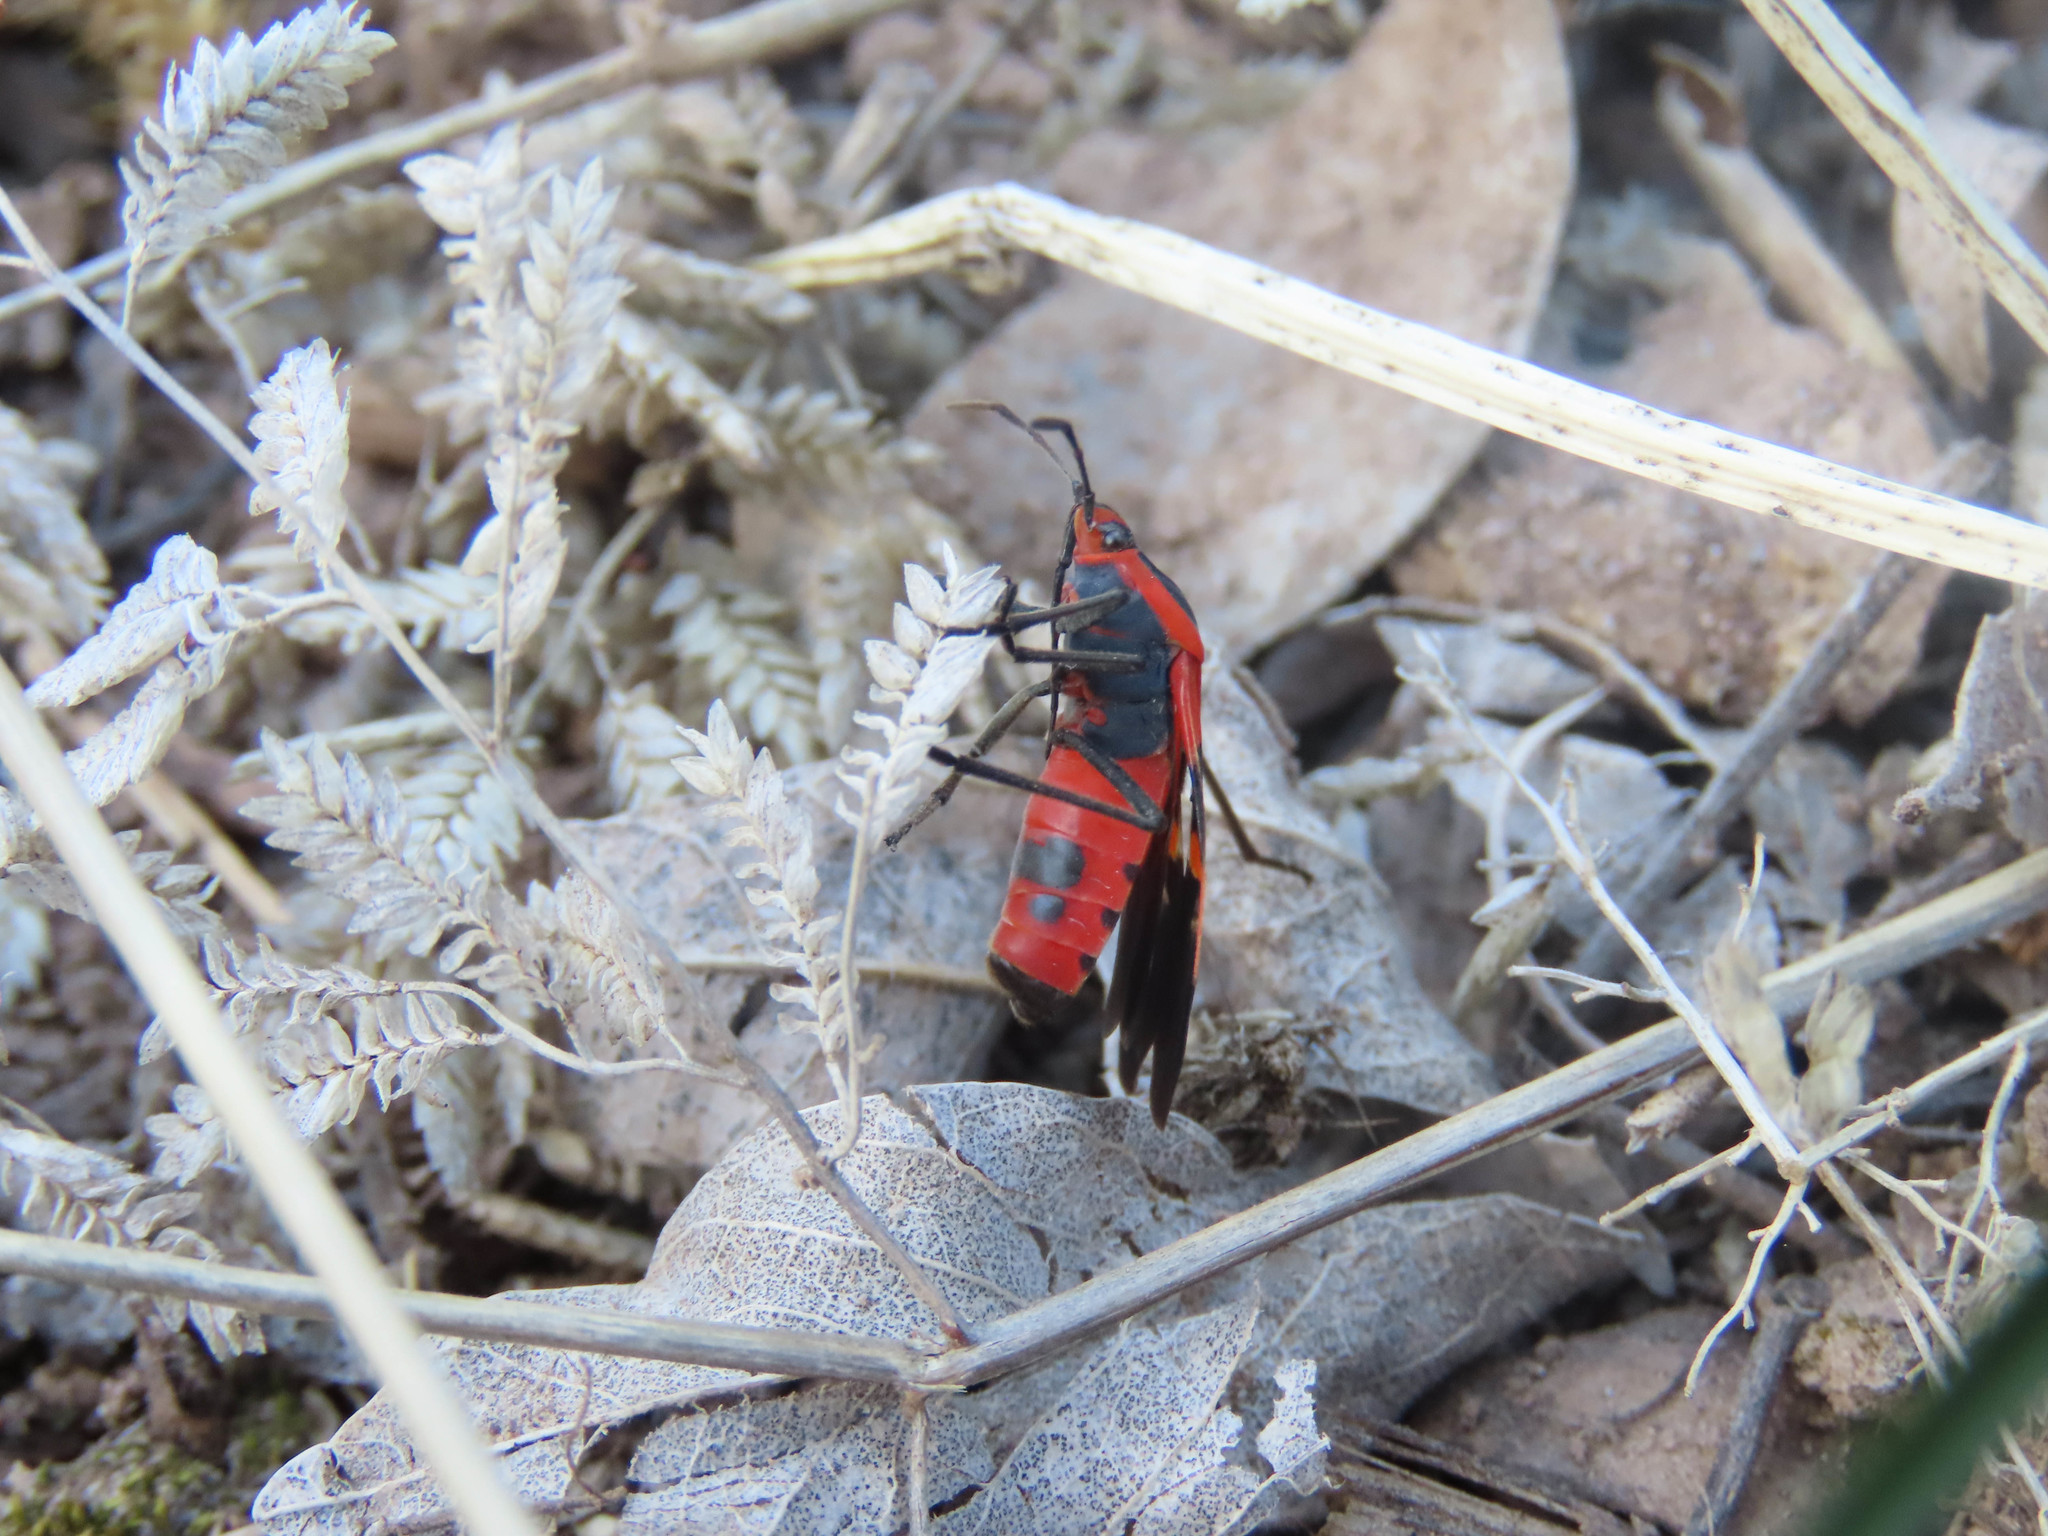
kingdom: Animalia
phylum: Arthropoda
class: Insecta
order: Hemiptera
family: Lygaeidae
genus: Oncopeltus
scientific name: Oncopeltus fasciatus
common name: Large milkweed bug
